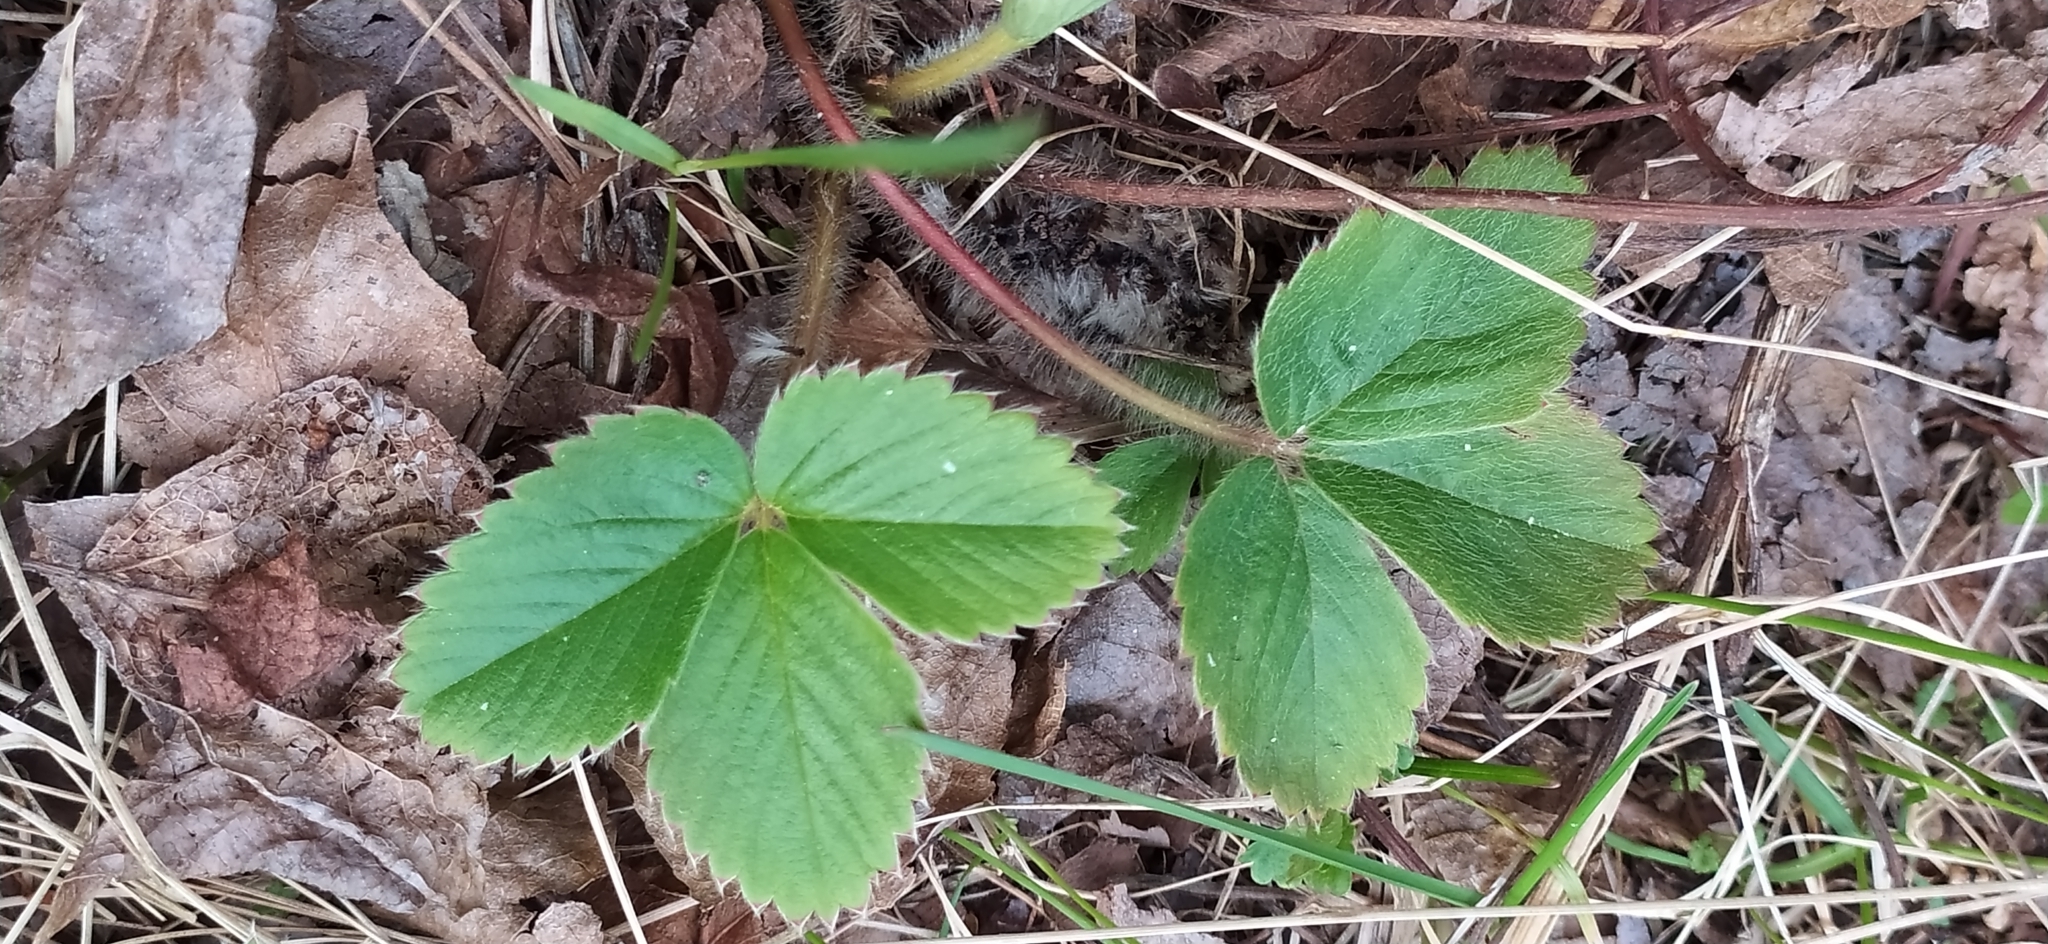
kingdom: Plantae
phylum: Tracheophyta
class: Magnoliopsida
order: Rosales
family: Rosaceae
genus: Fragaria
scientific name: Fragaria vesca
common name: Wild strawberry
